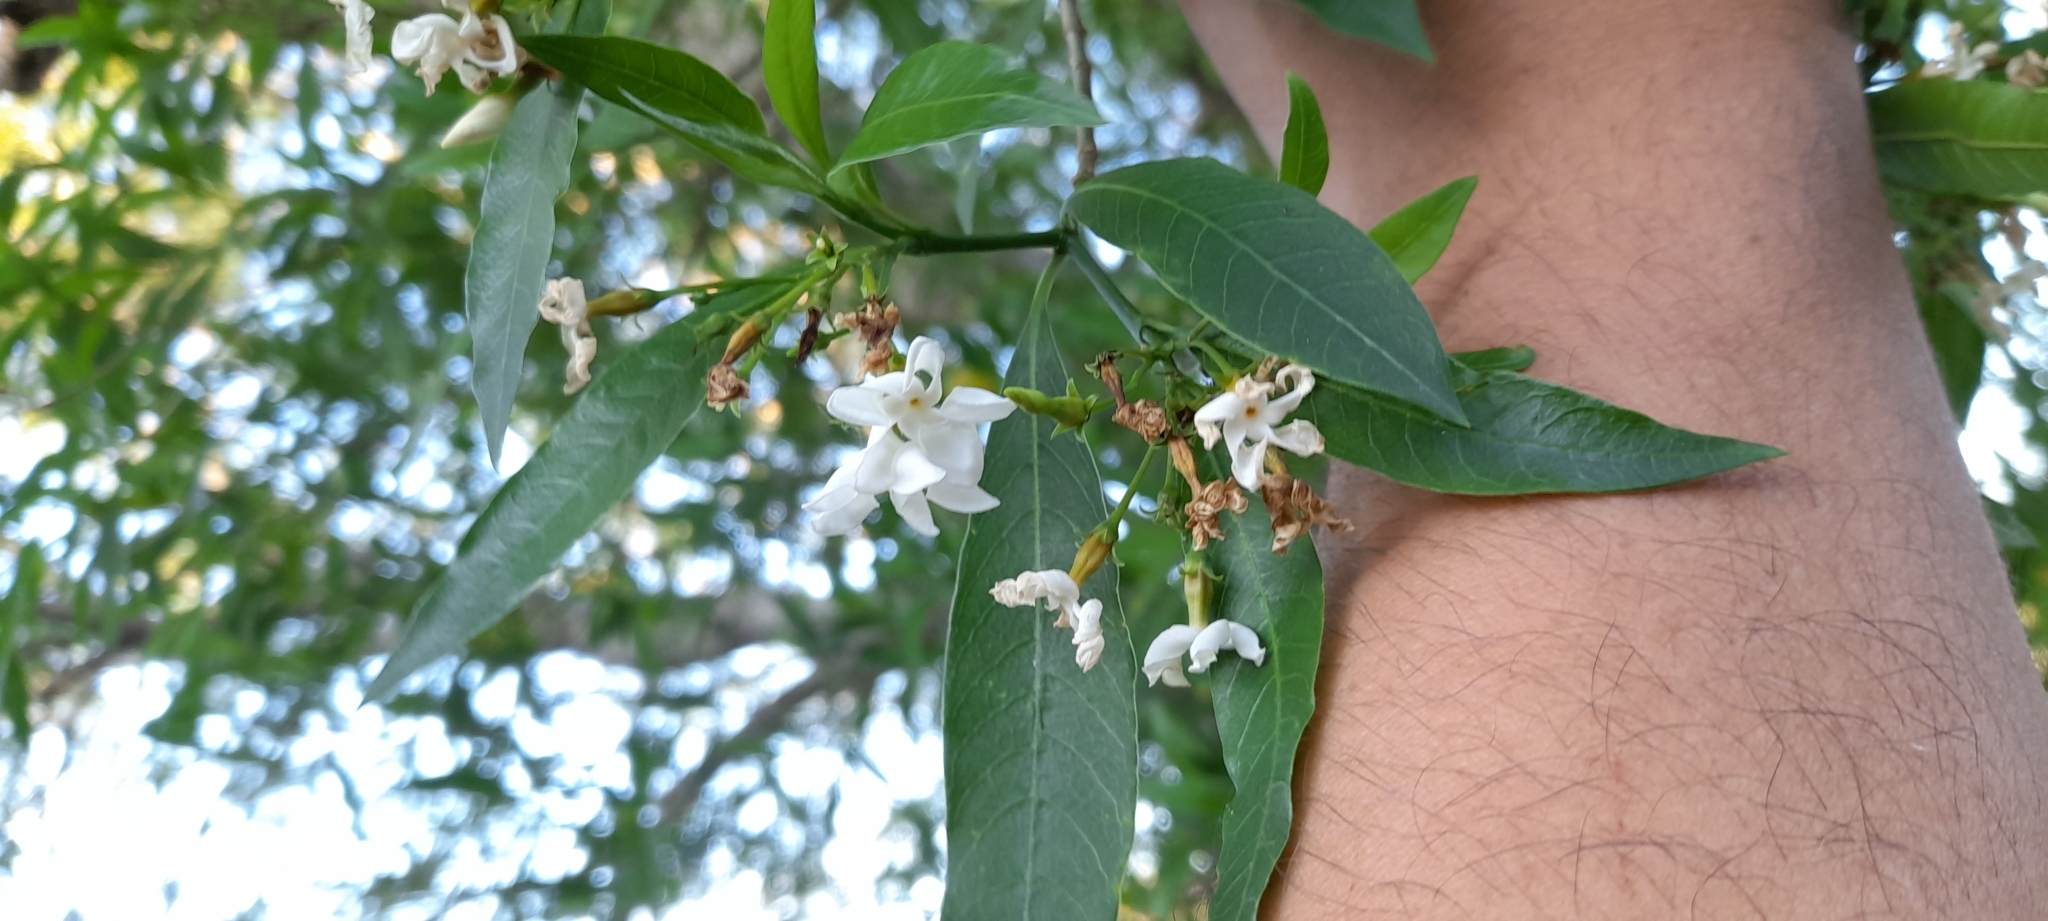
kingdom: Plantae
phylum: Tracheophyta
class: Magnoliopsida
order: Gentianales
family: Apocynaceae
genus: Tabernaemontana
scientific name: Tabernaemontana catharinensis
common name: Pinwheel-flower
